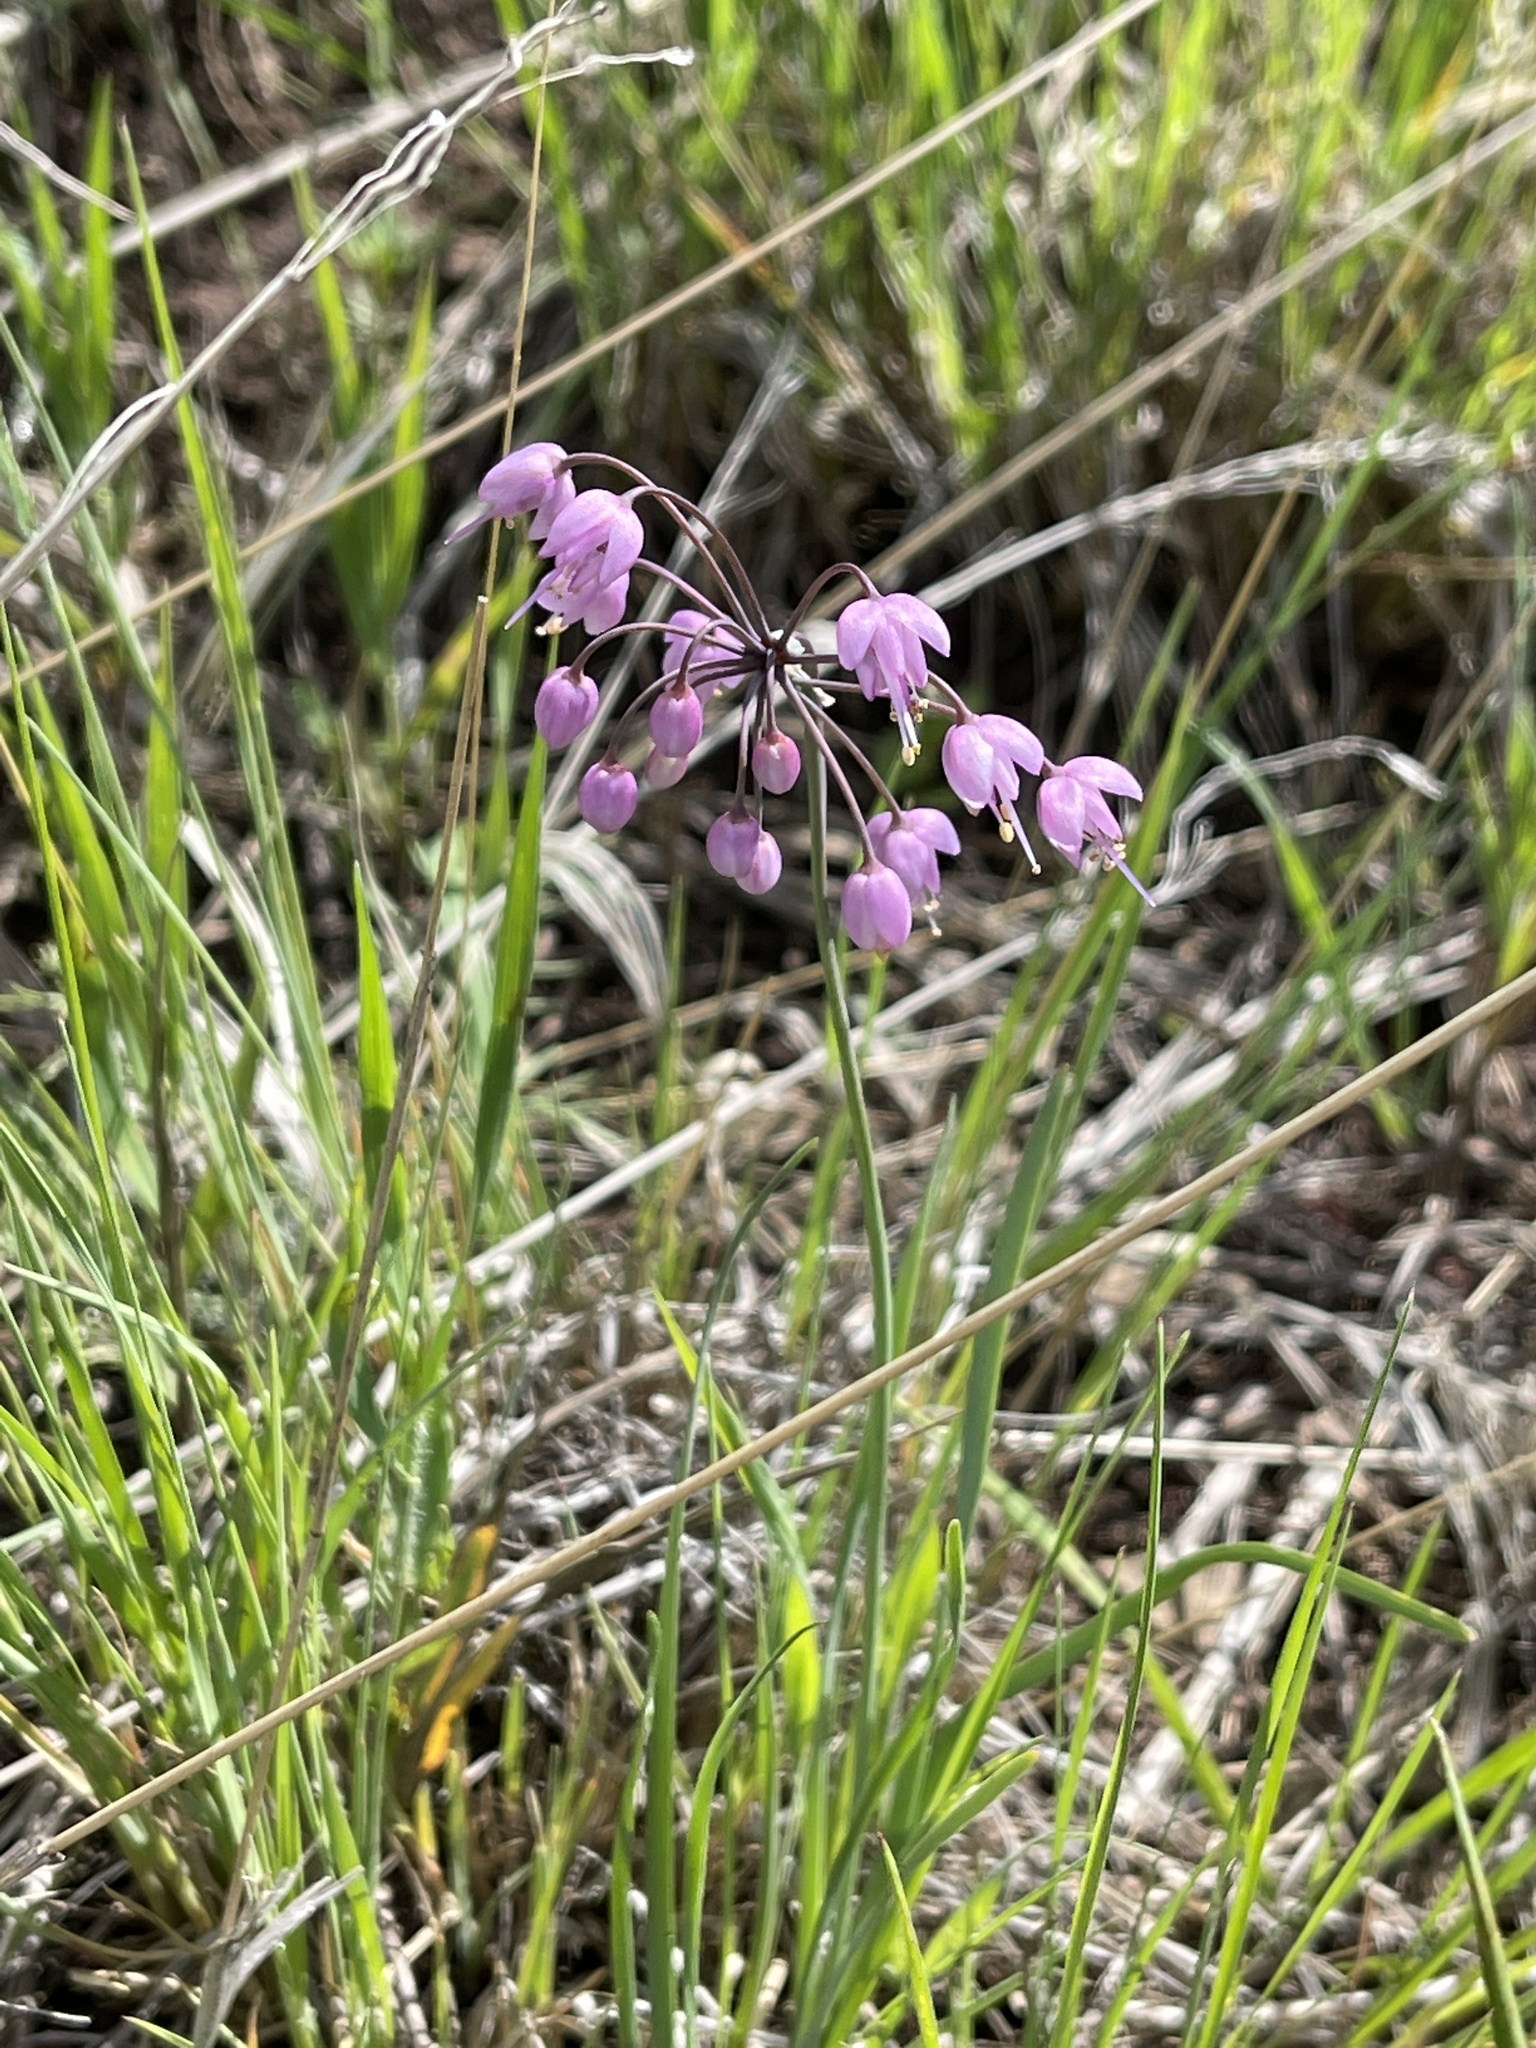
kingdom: Plantae
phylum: Tracheophyta
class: Liliopsida
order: Asparagales
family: Amaryllidaceae
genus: Allium
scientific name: Allium cernuum
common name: Nodding onion
